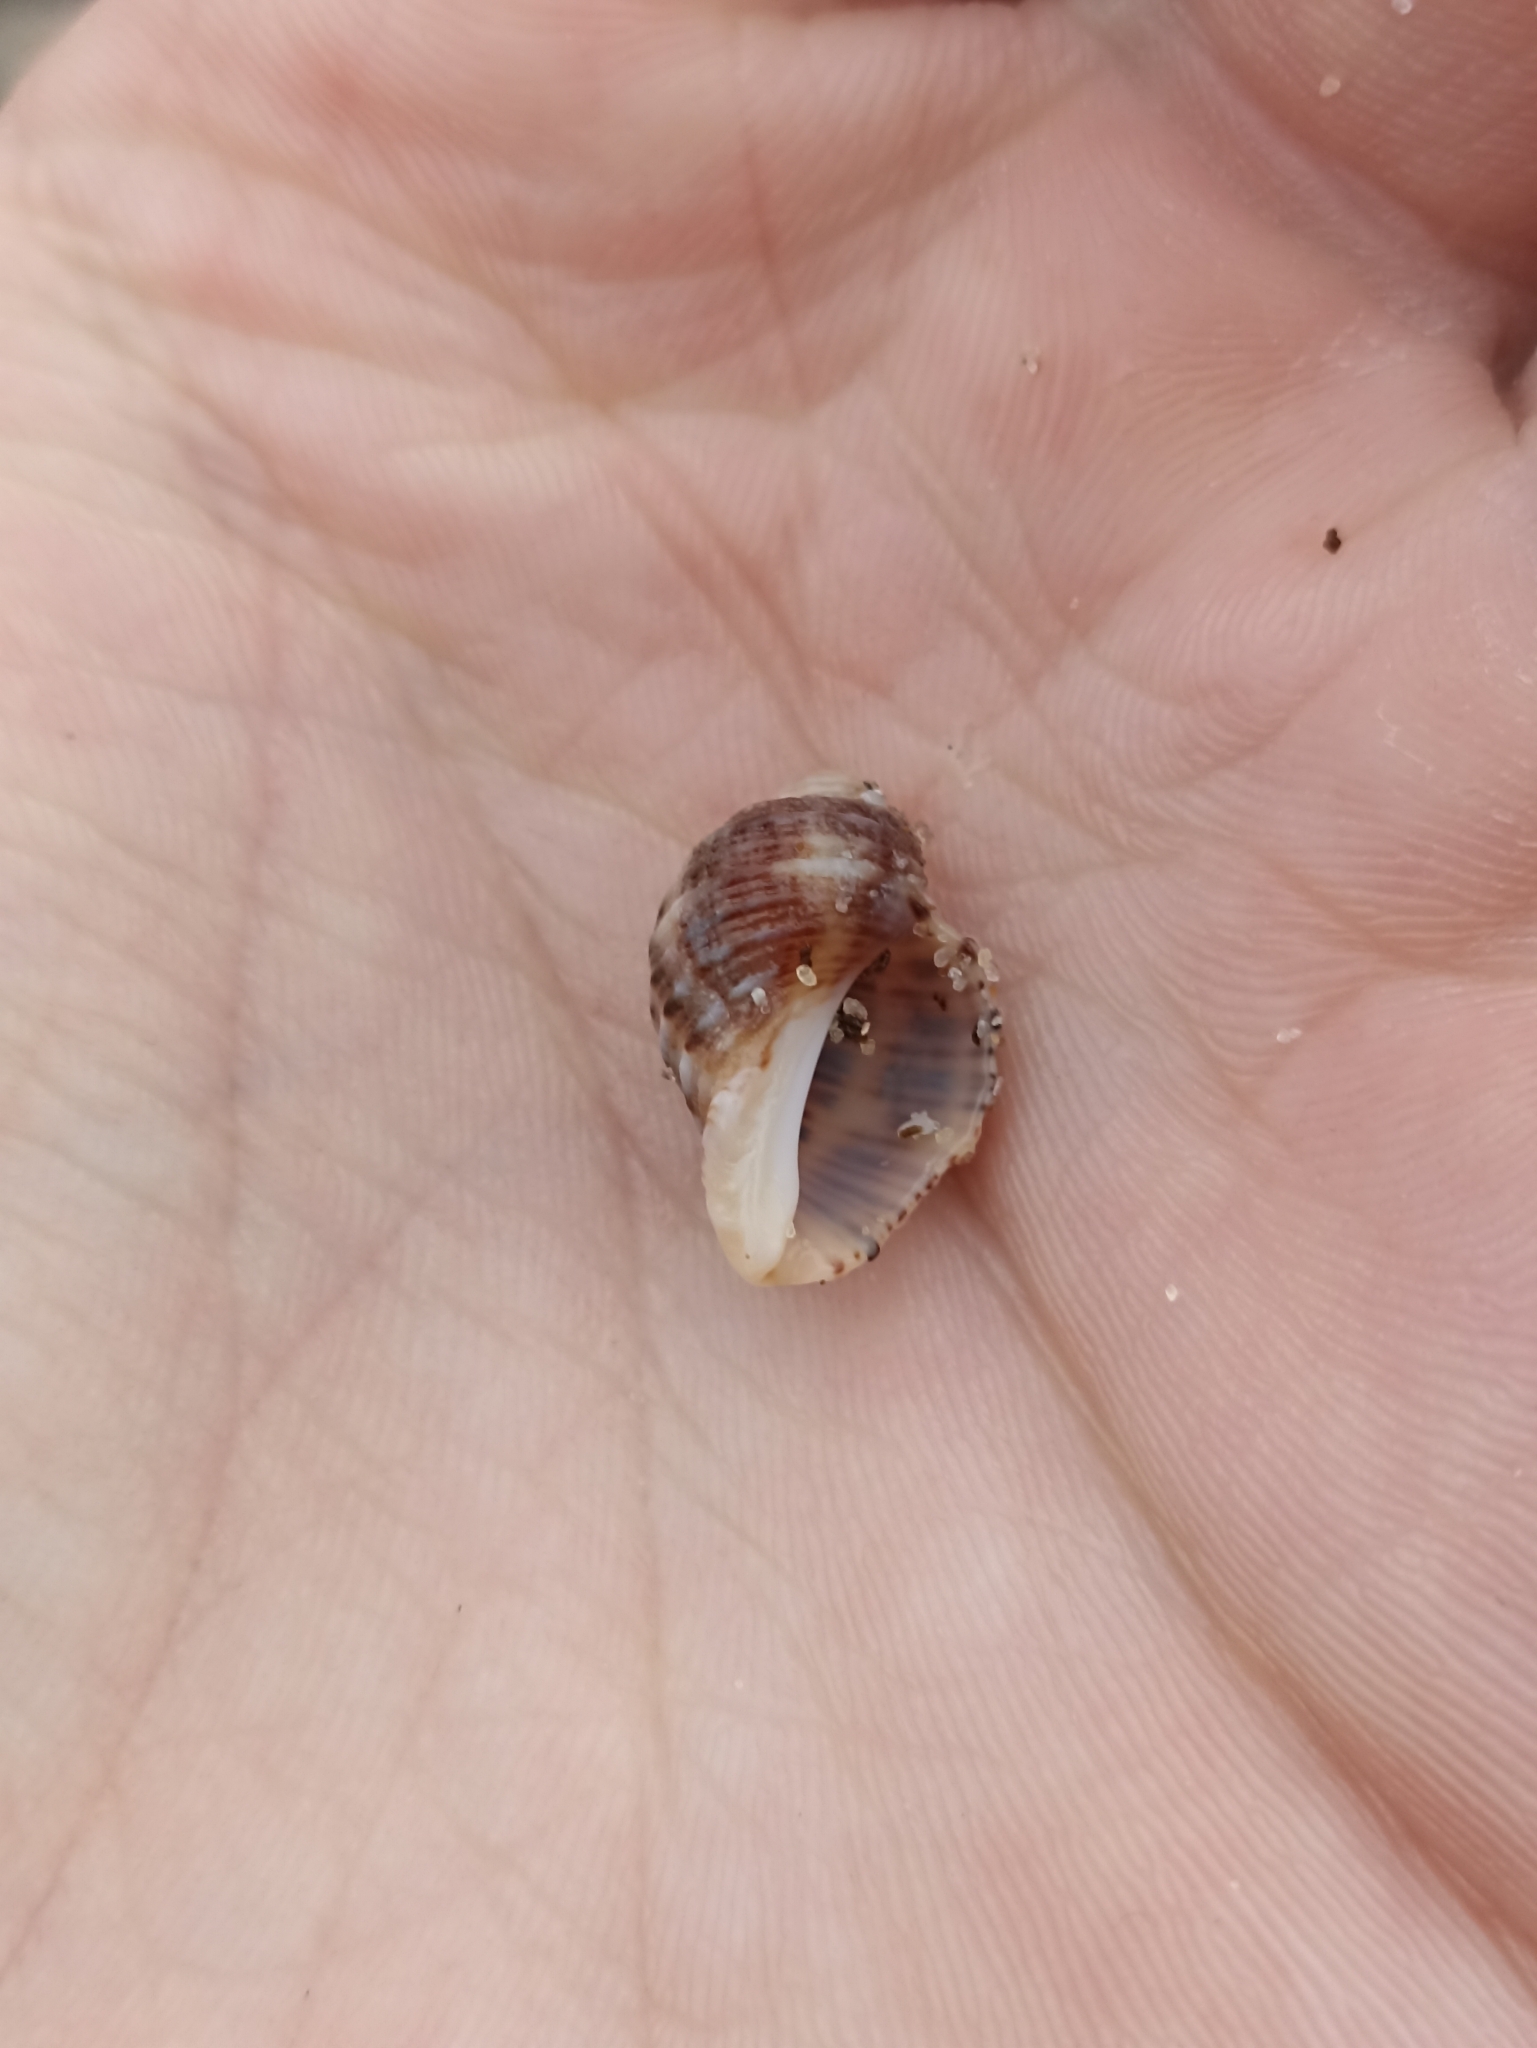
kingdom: Animalia
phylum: Mollusca
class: Gastropoda
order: Neogastropoda
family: Muricidae
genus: Dicathais
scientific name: Dicathais orbita
